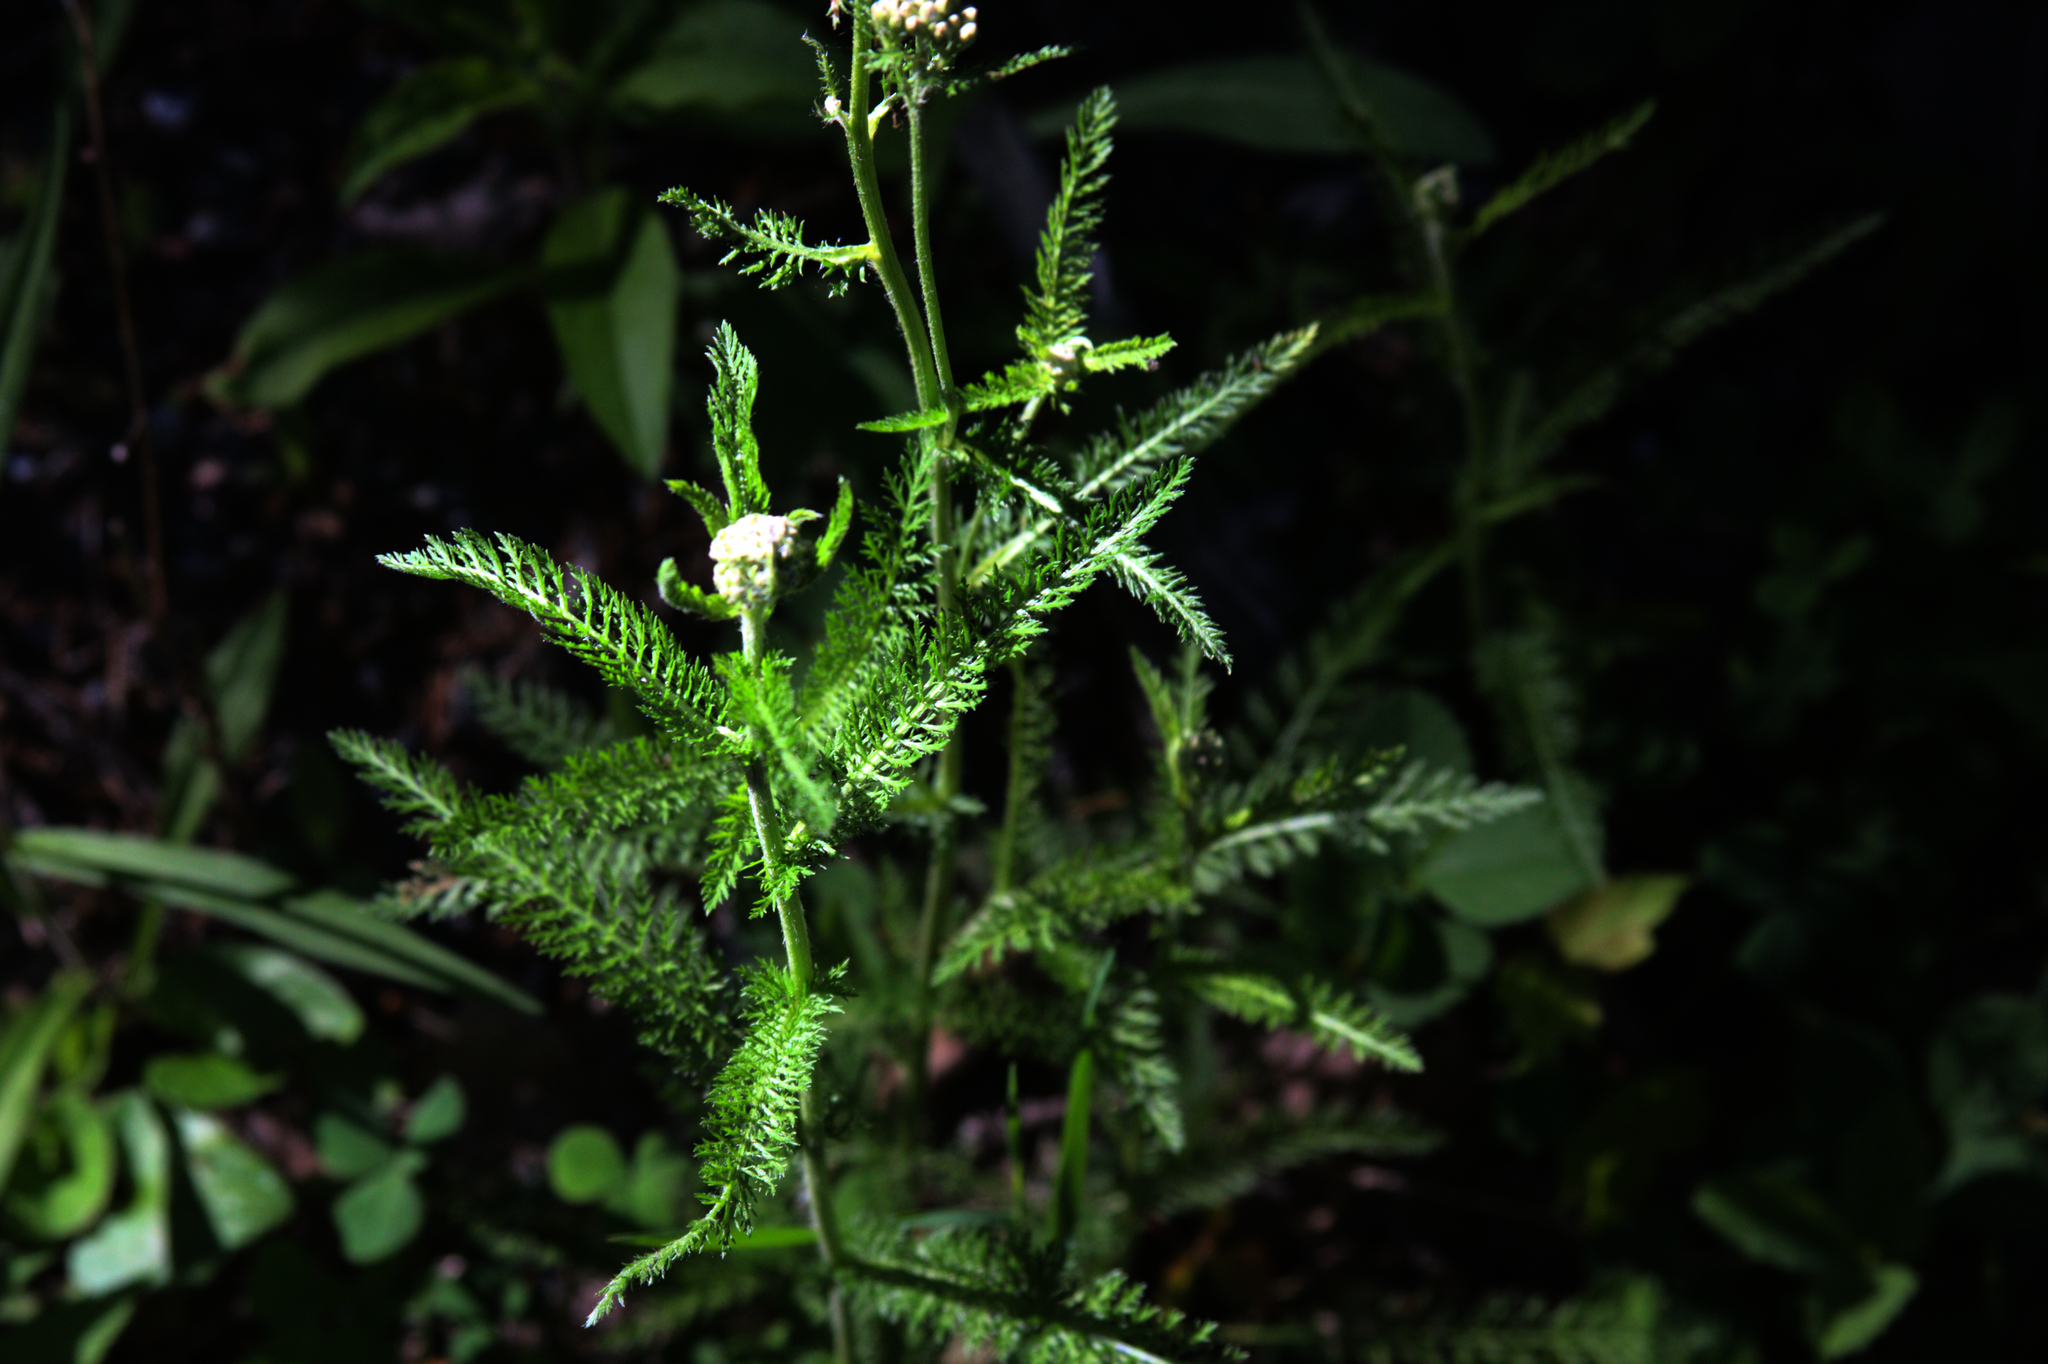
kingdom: Plantae
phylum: Tracheophyta
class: Magnoliopsida
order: Asterales
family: Asteraceae
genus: Achillea
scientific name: Achillea millefolium
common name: Yarrow
